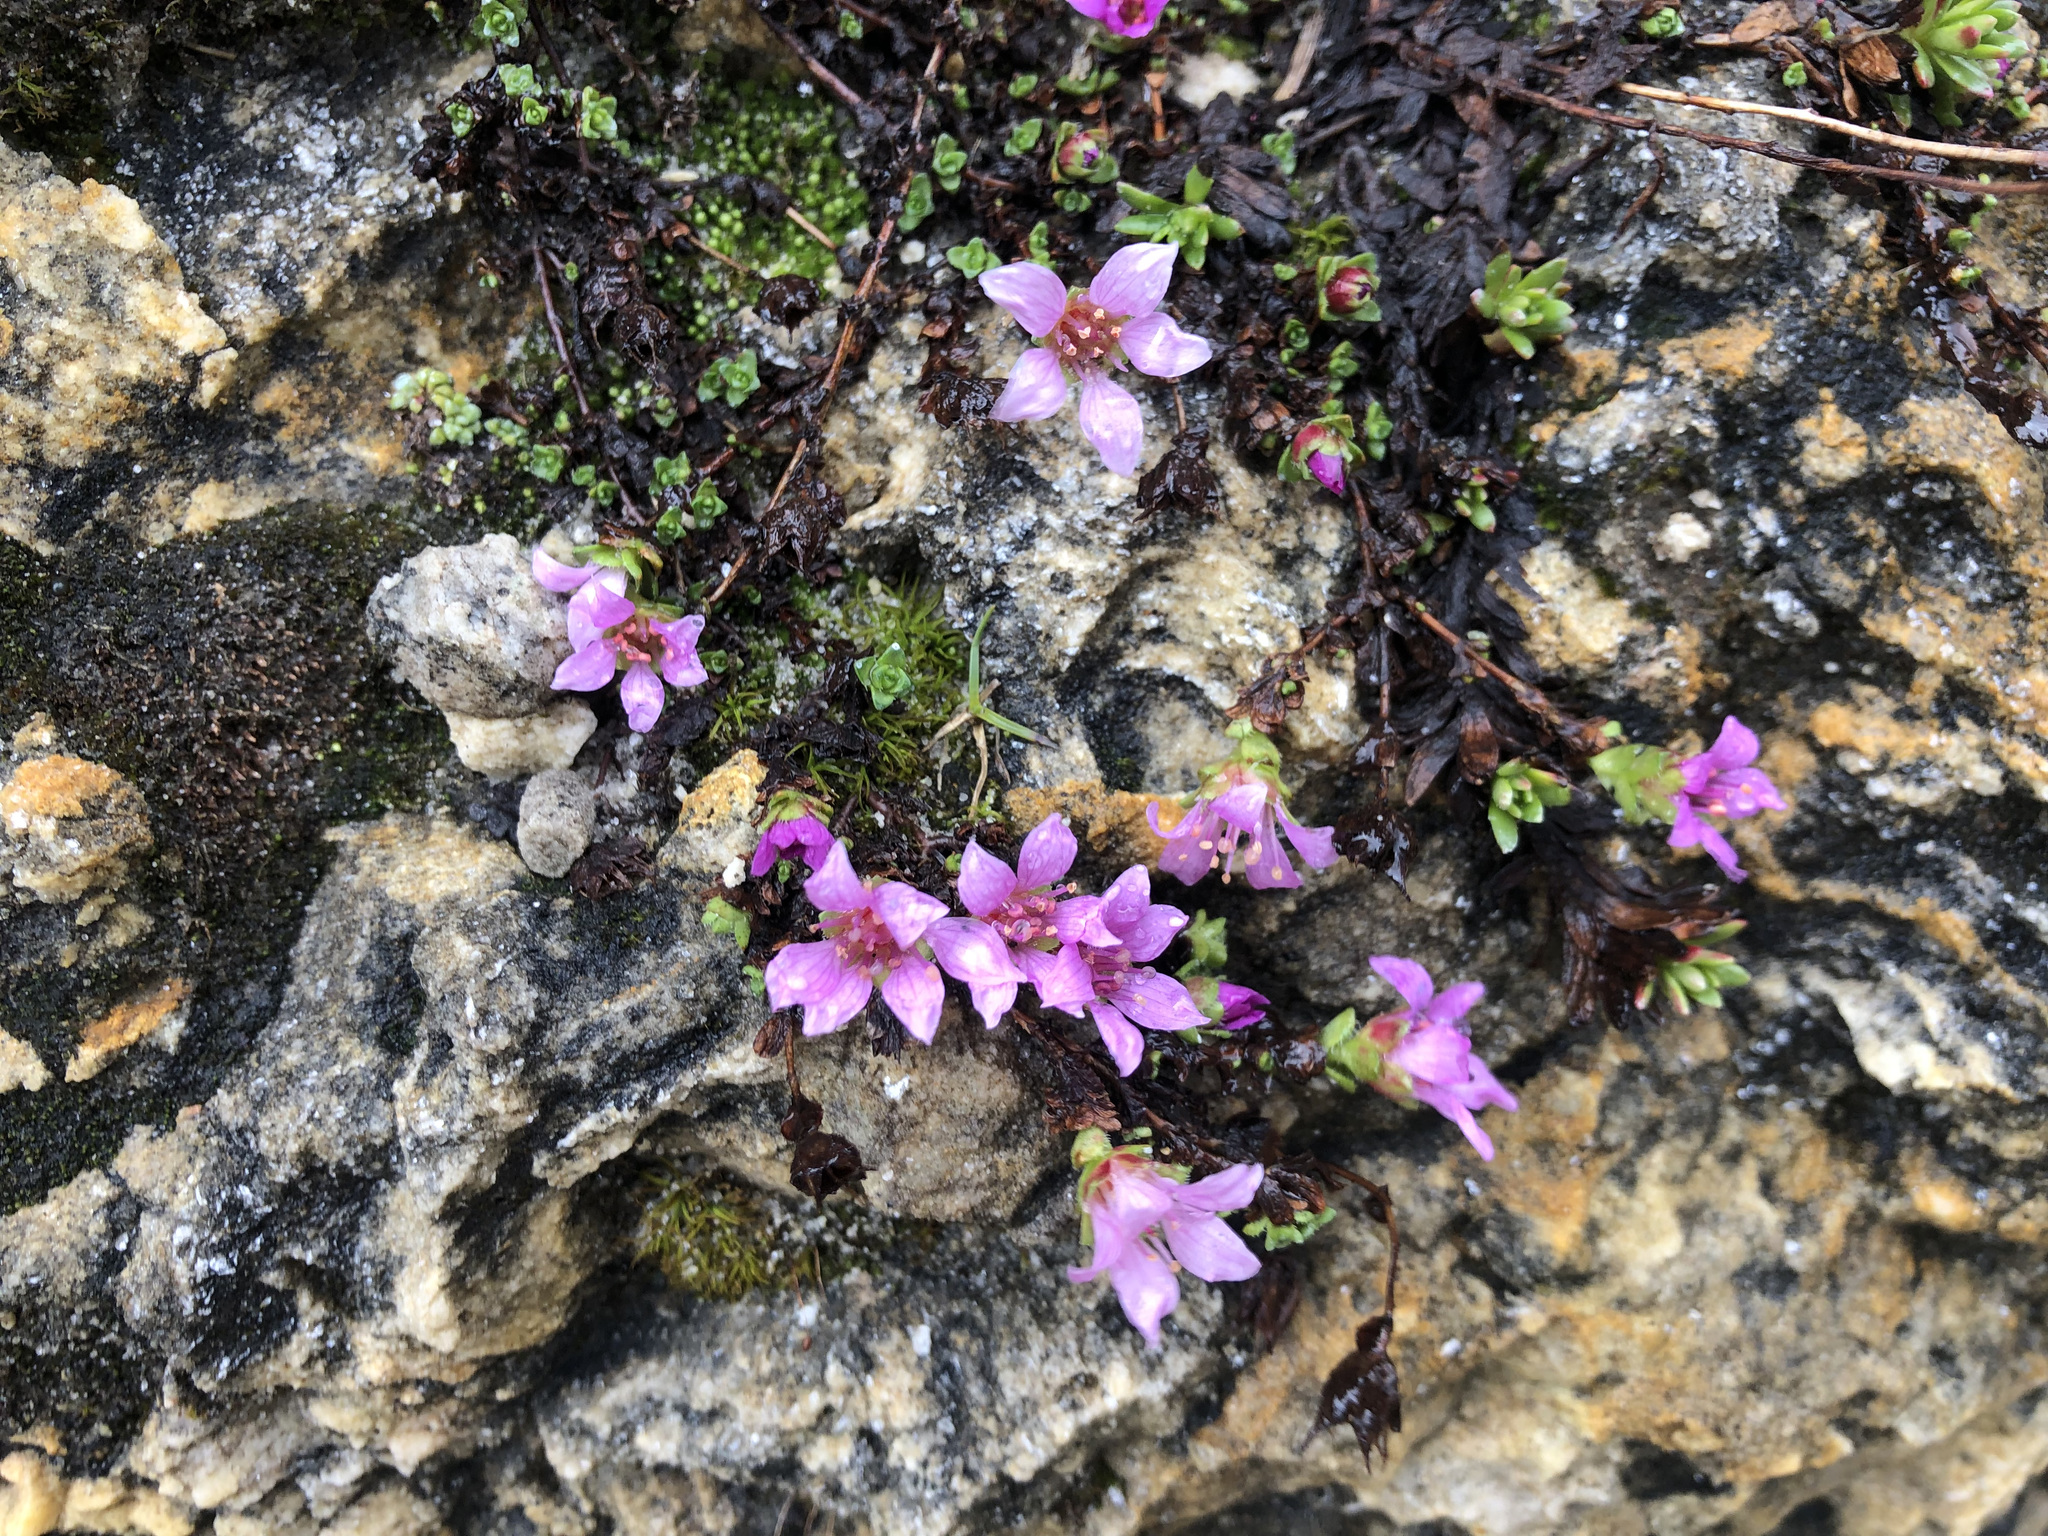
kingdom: Plantae
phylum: Tracheophyta
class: Magnoliopsida
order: Saxifragales
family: Saxifragaceae
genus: Saxifraga
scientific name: Saxifraga oppositifolia
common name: Purple saxifrage
